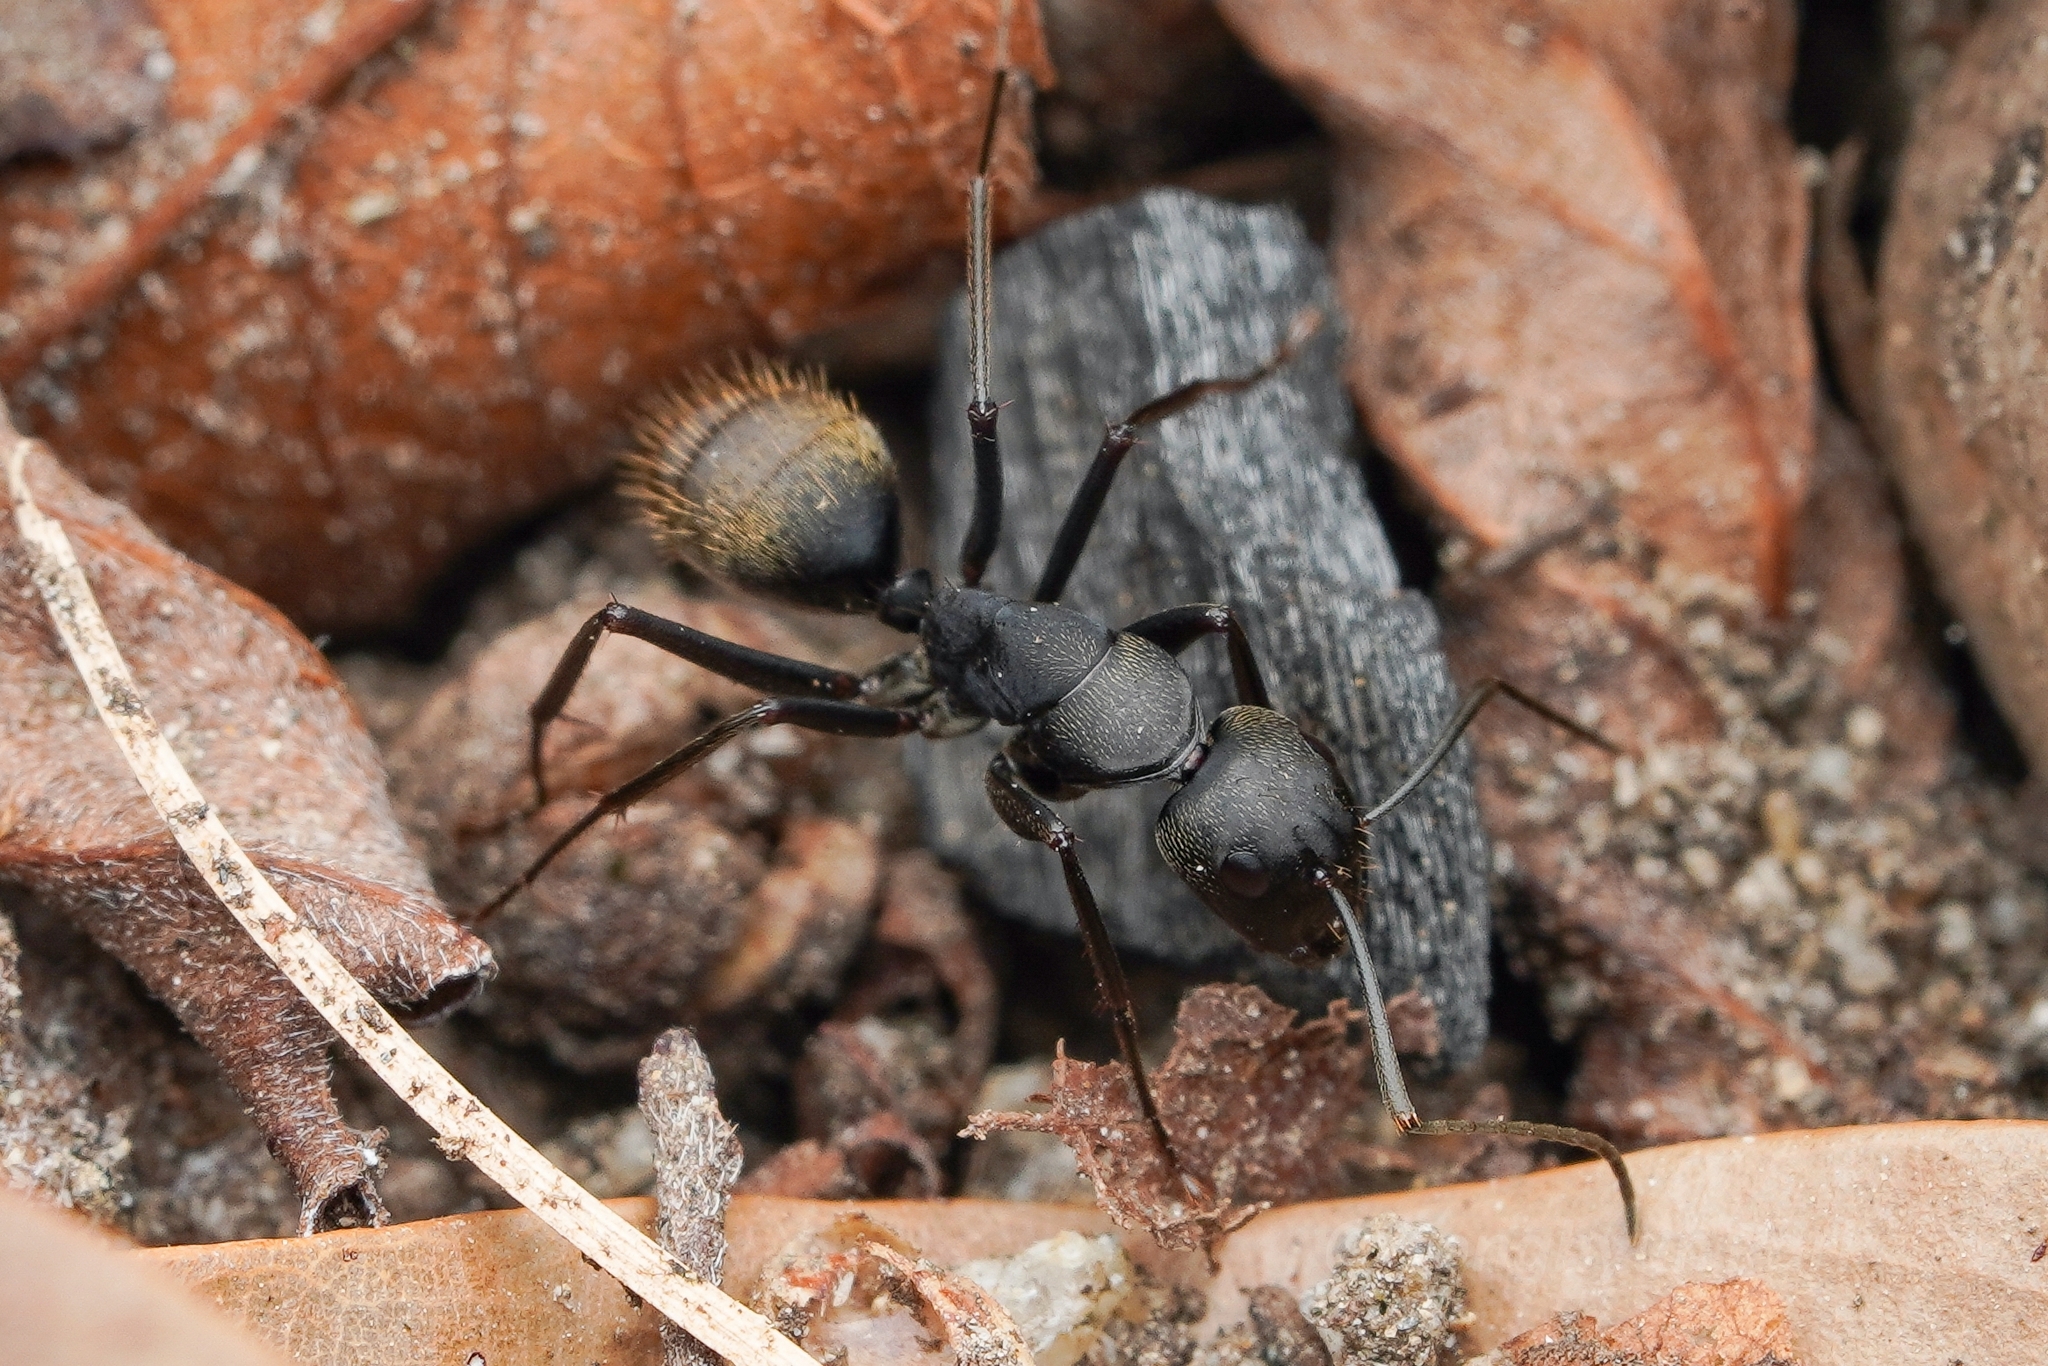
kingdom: Animalia
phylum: Arthropoda
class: Insecta
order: Hymenoptera
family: Formicidae
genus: Camponotus
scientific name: Camponotus japonicus
